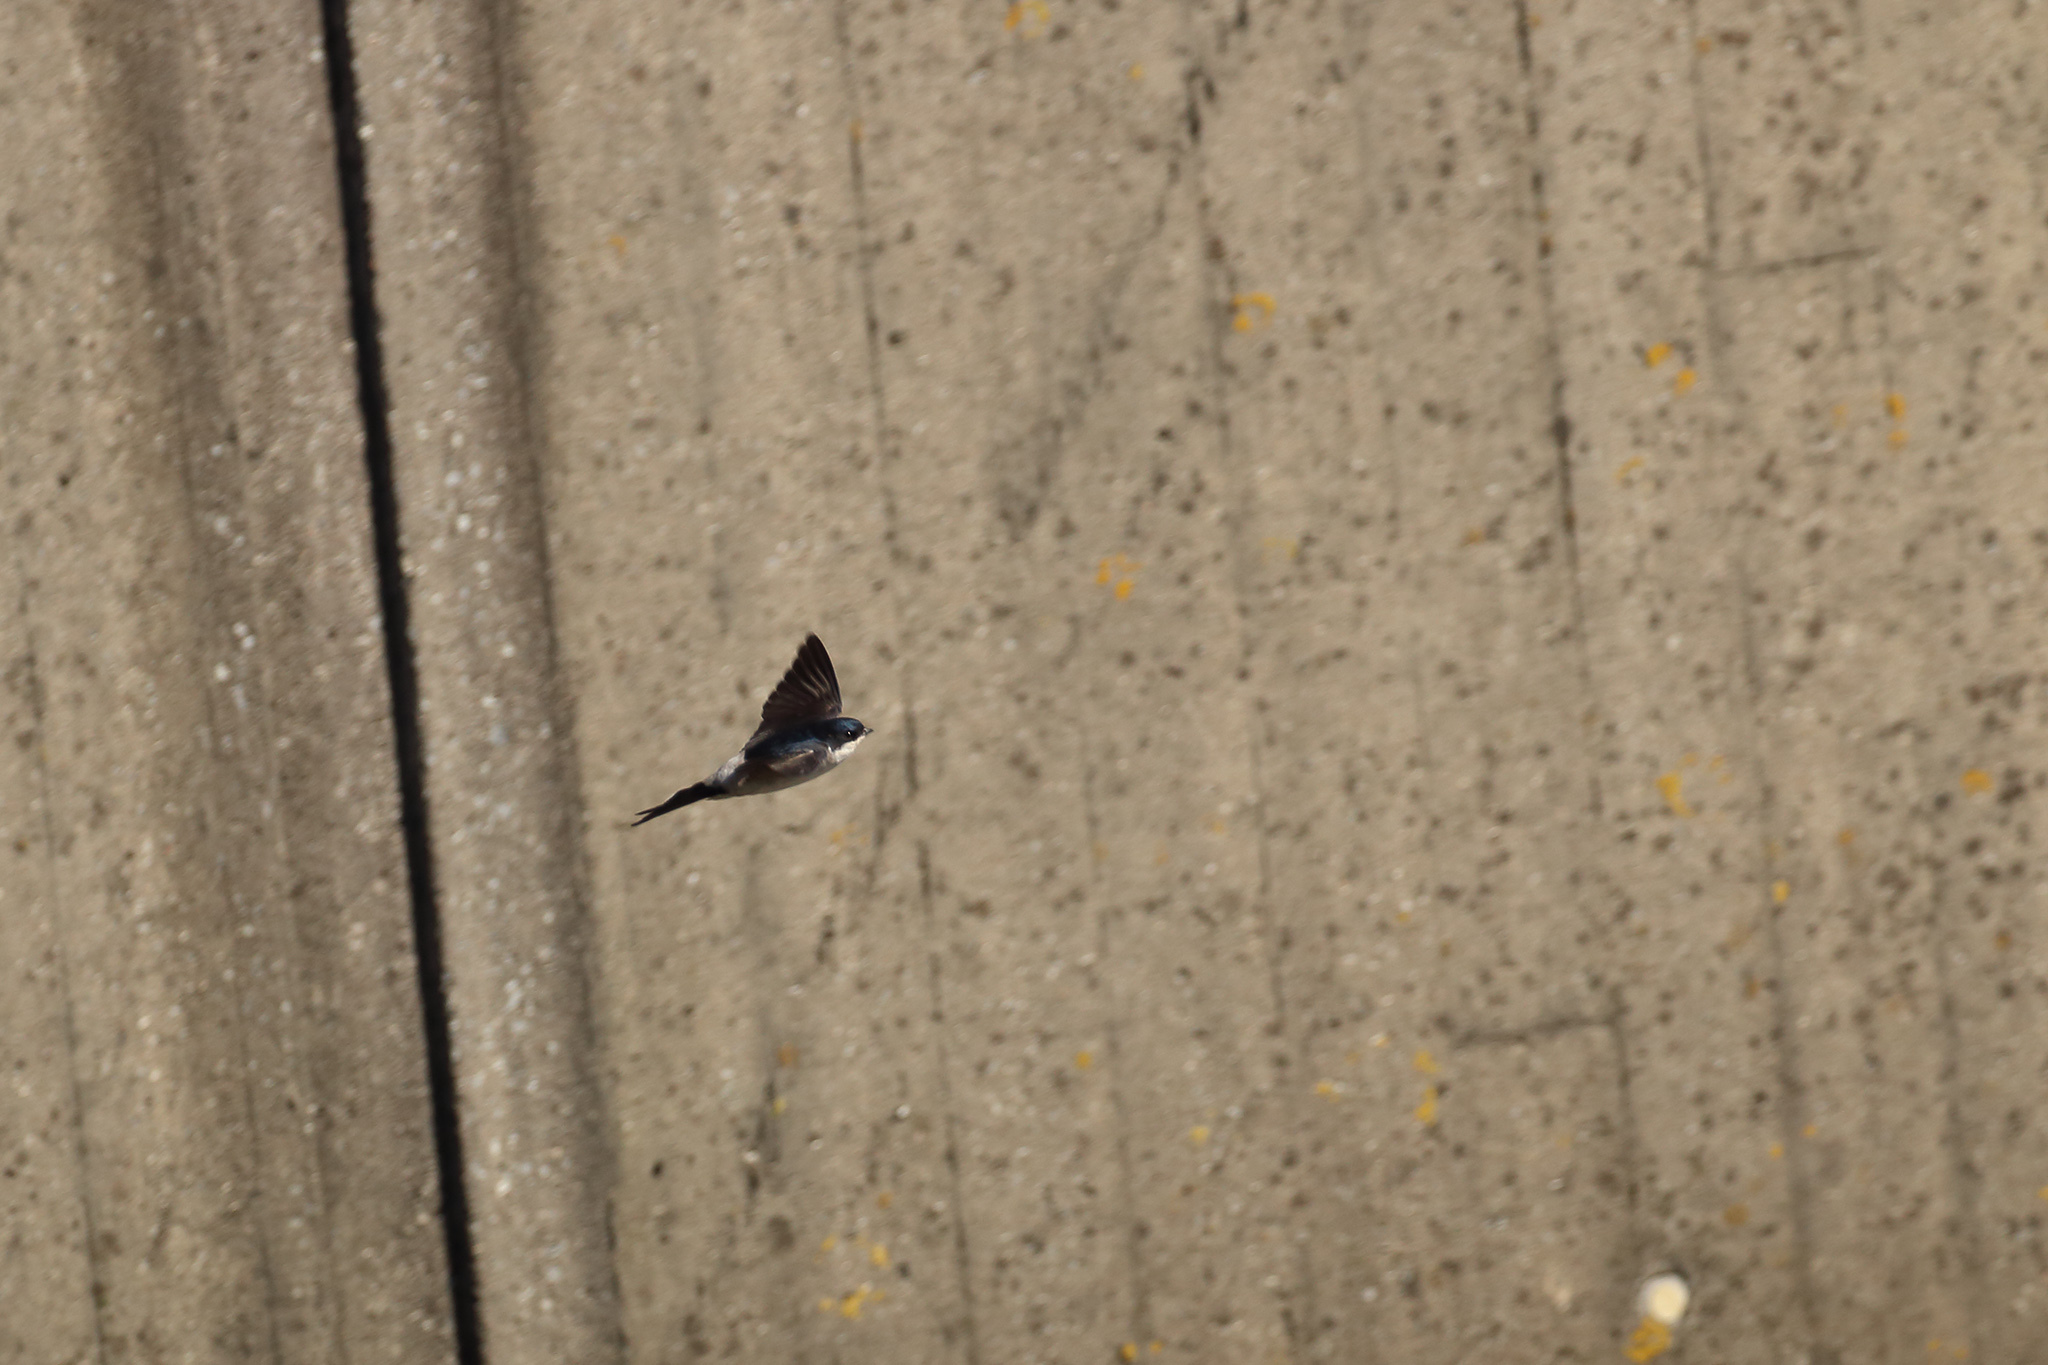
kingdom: Animalia
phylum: Chordata
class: Aves
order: Passeriformes
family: Hirundinidae
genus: Delichon
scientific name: Delichon urbicum
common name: Common house martin
